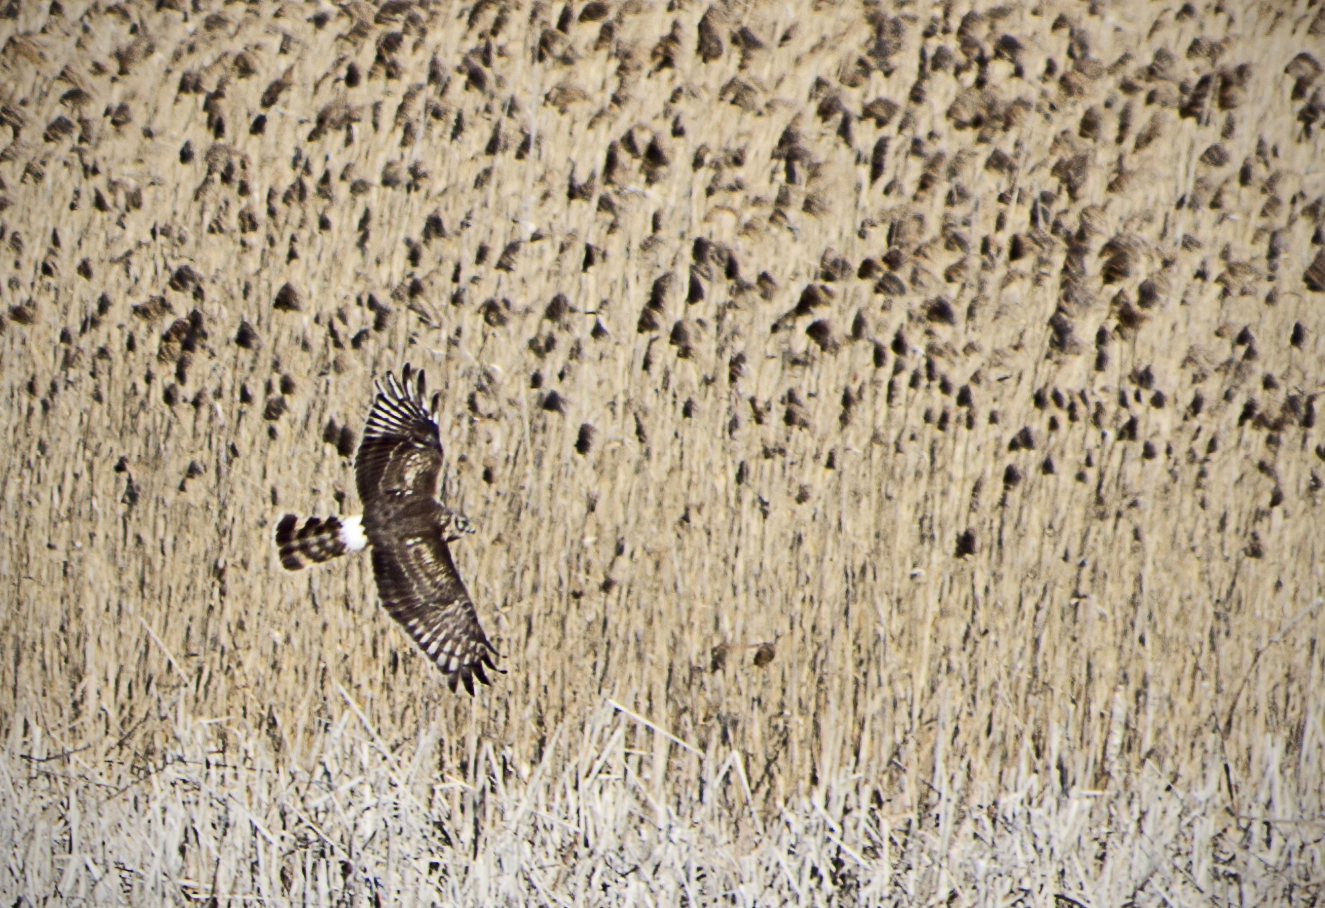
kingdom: Animalia
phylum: Chordata
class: Aves
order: Accipitriformes
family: Accipitridae
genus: Circus
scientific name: Circus cyaneus
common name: Hen harrier
